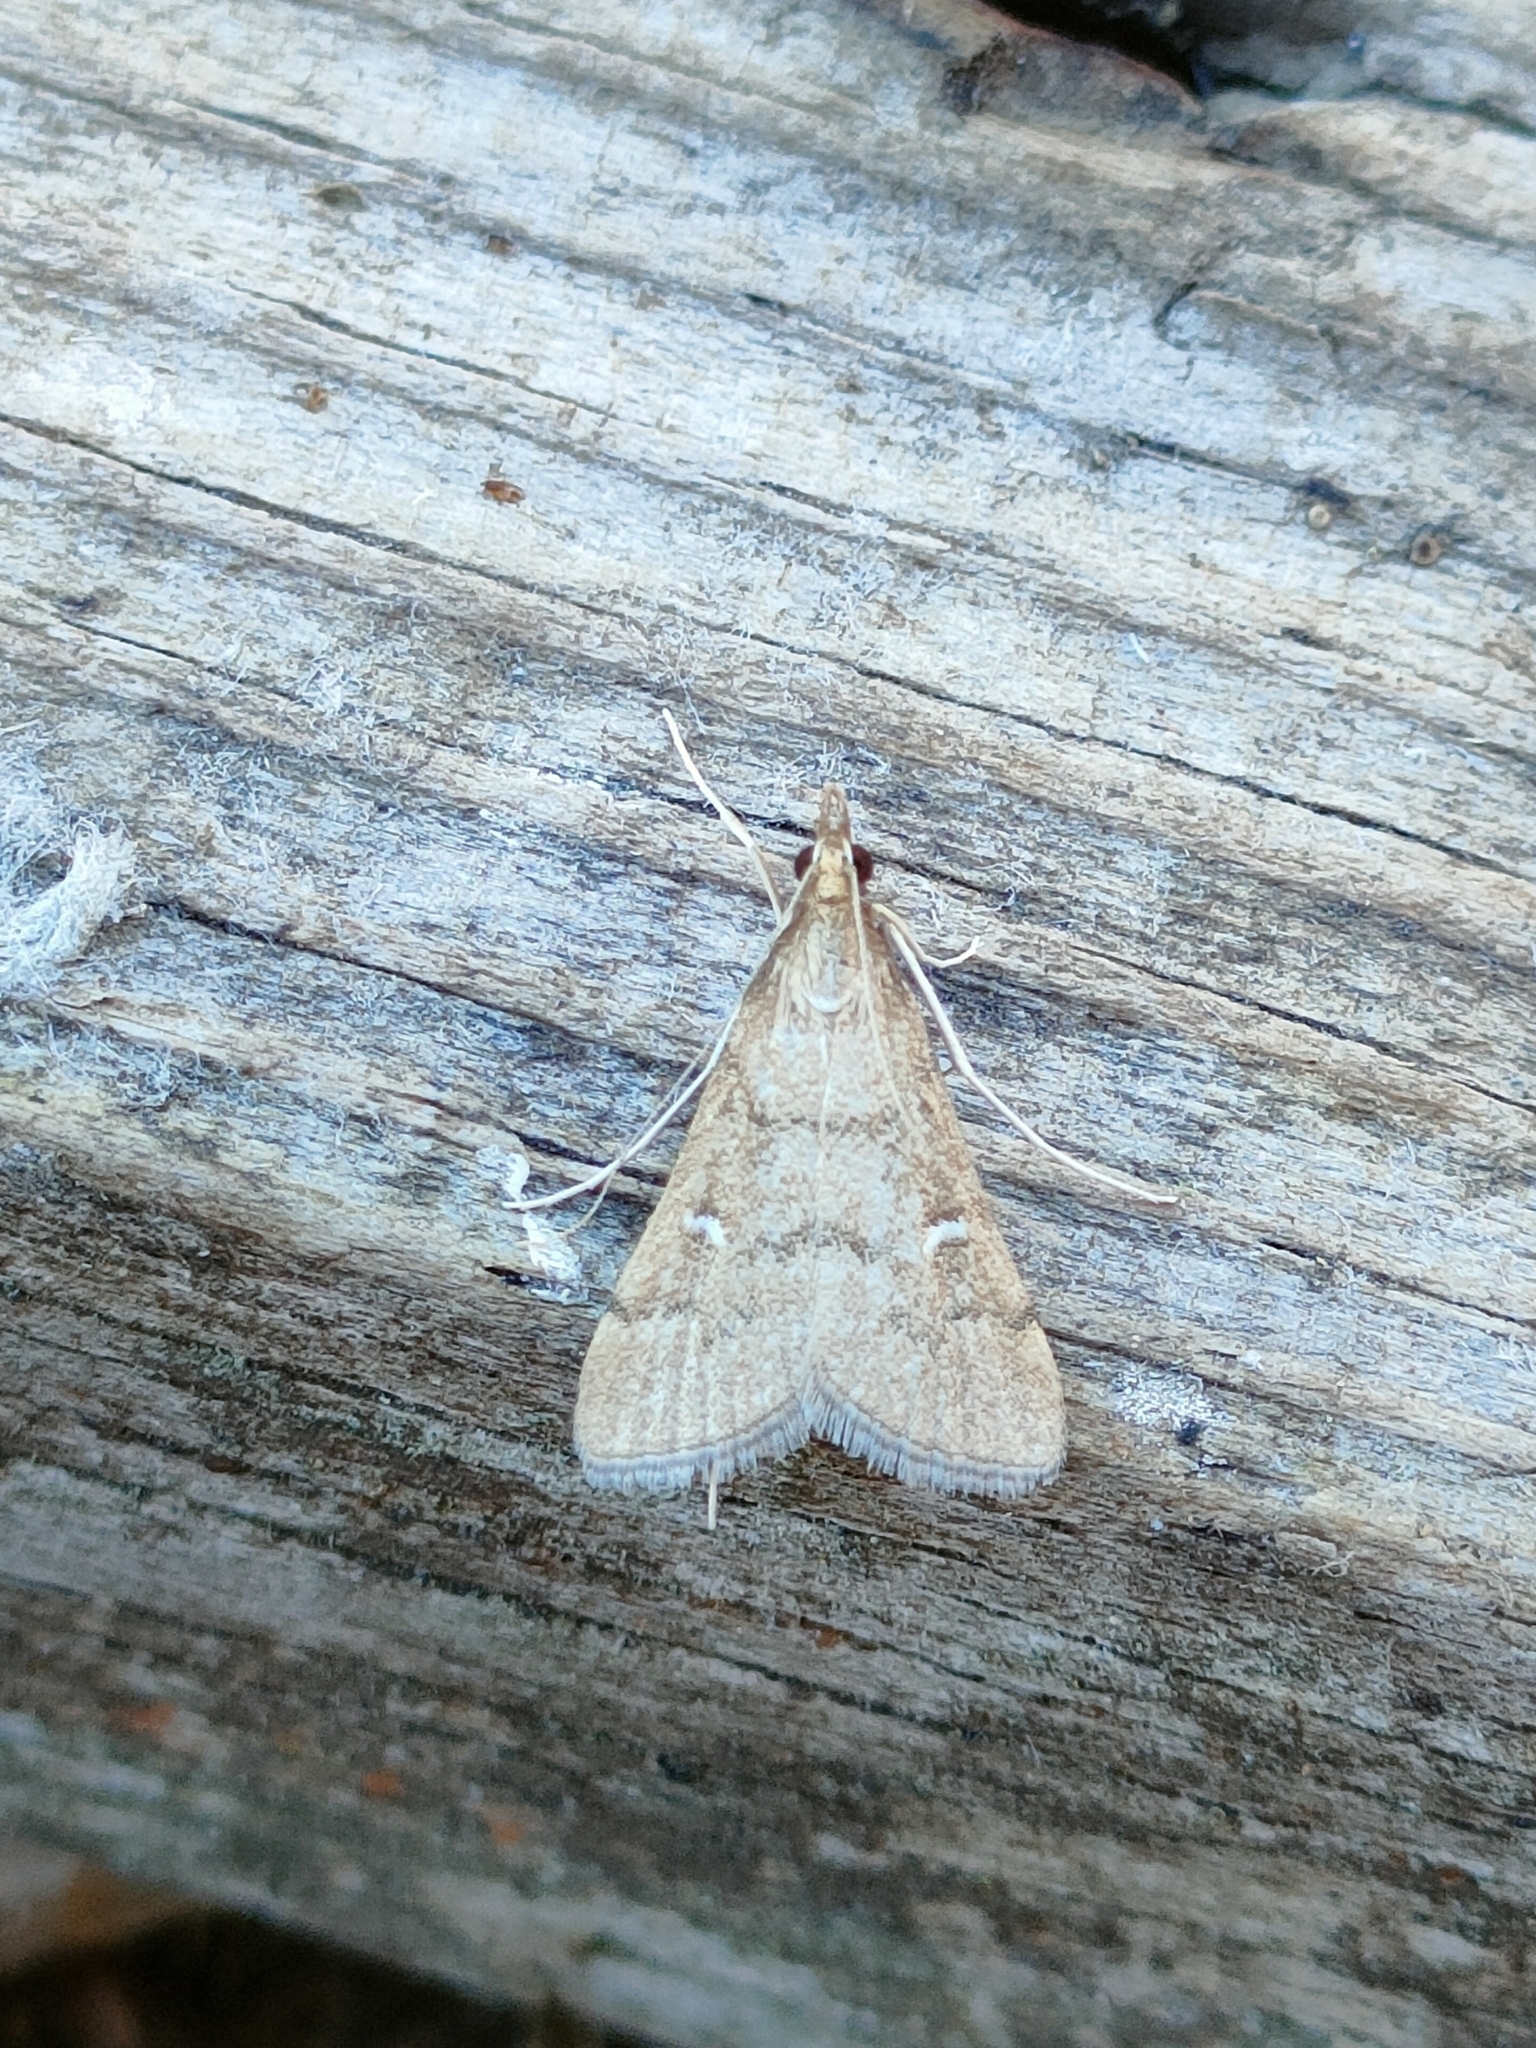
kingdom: Animalia
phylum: Arthropoda
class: Insecta
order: Lepidoptera
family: Crambidae
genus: Stenia
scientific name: Stenia Dolicharthria punctalis
